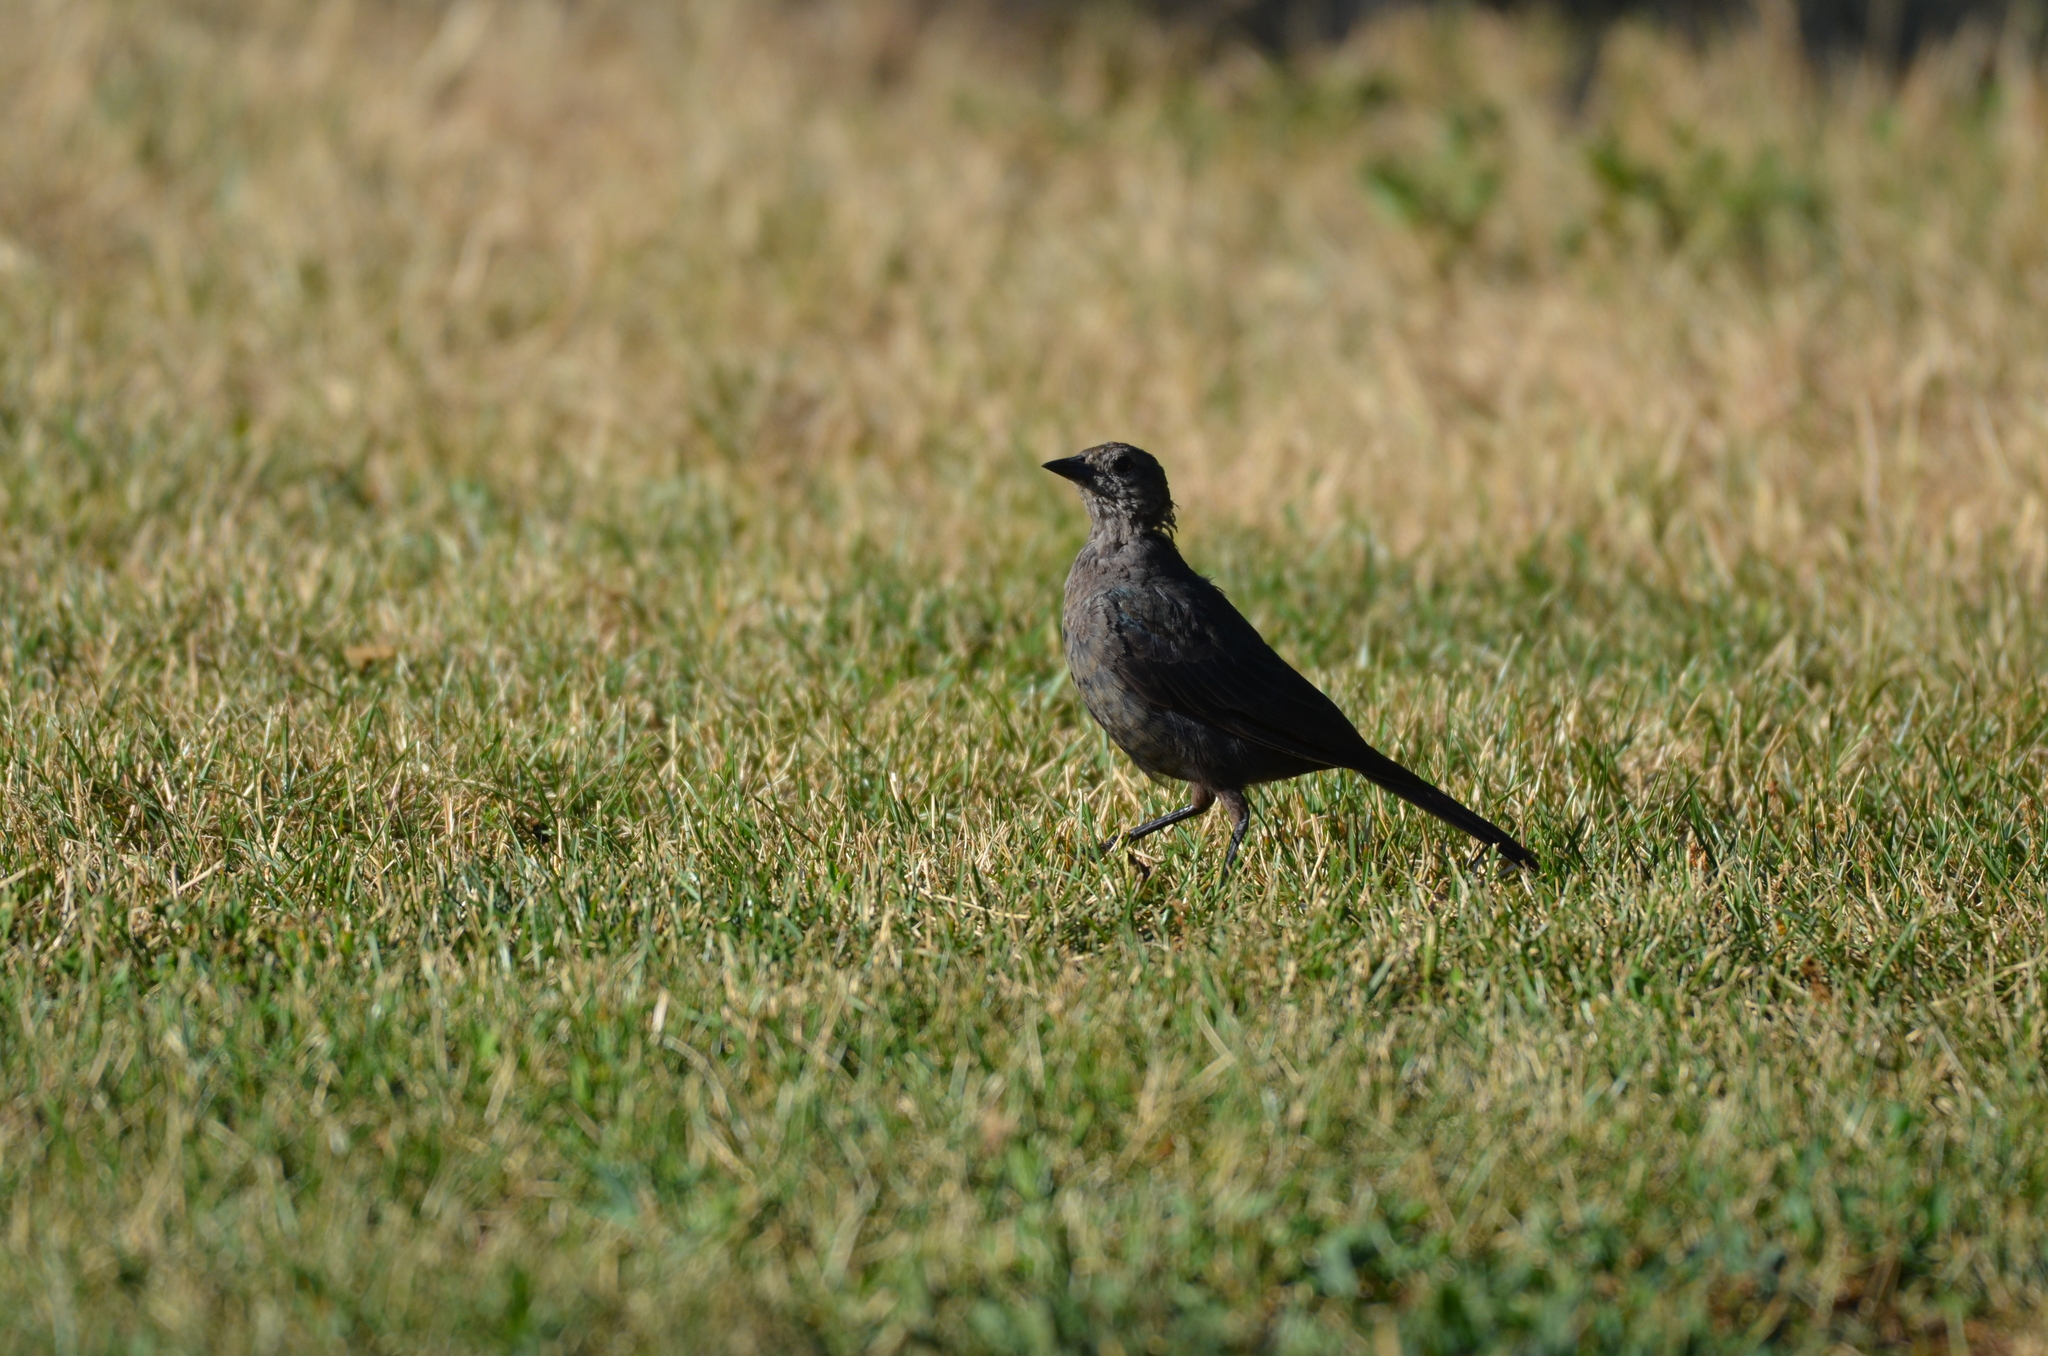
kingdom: Animalia
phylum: Chordata
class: Aves
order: Passeriformes
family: Icteridae
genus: Euphagus
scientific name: Euphagus cyanocephalus
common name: Brewer's blackbird
